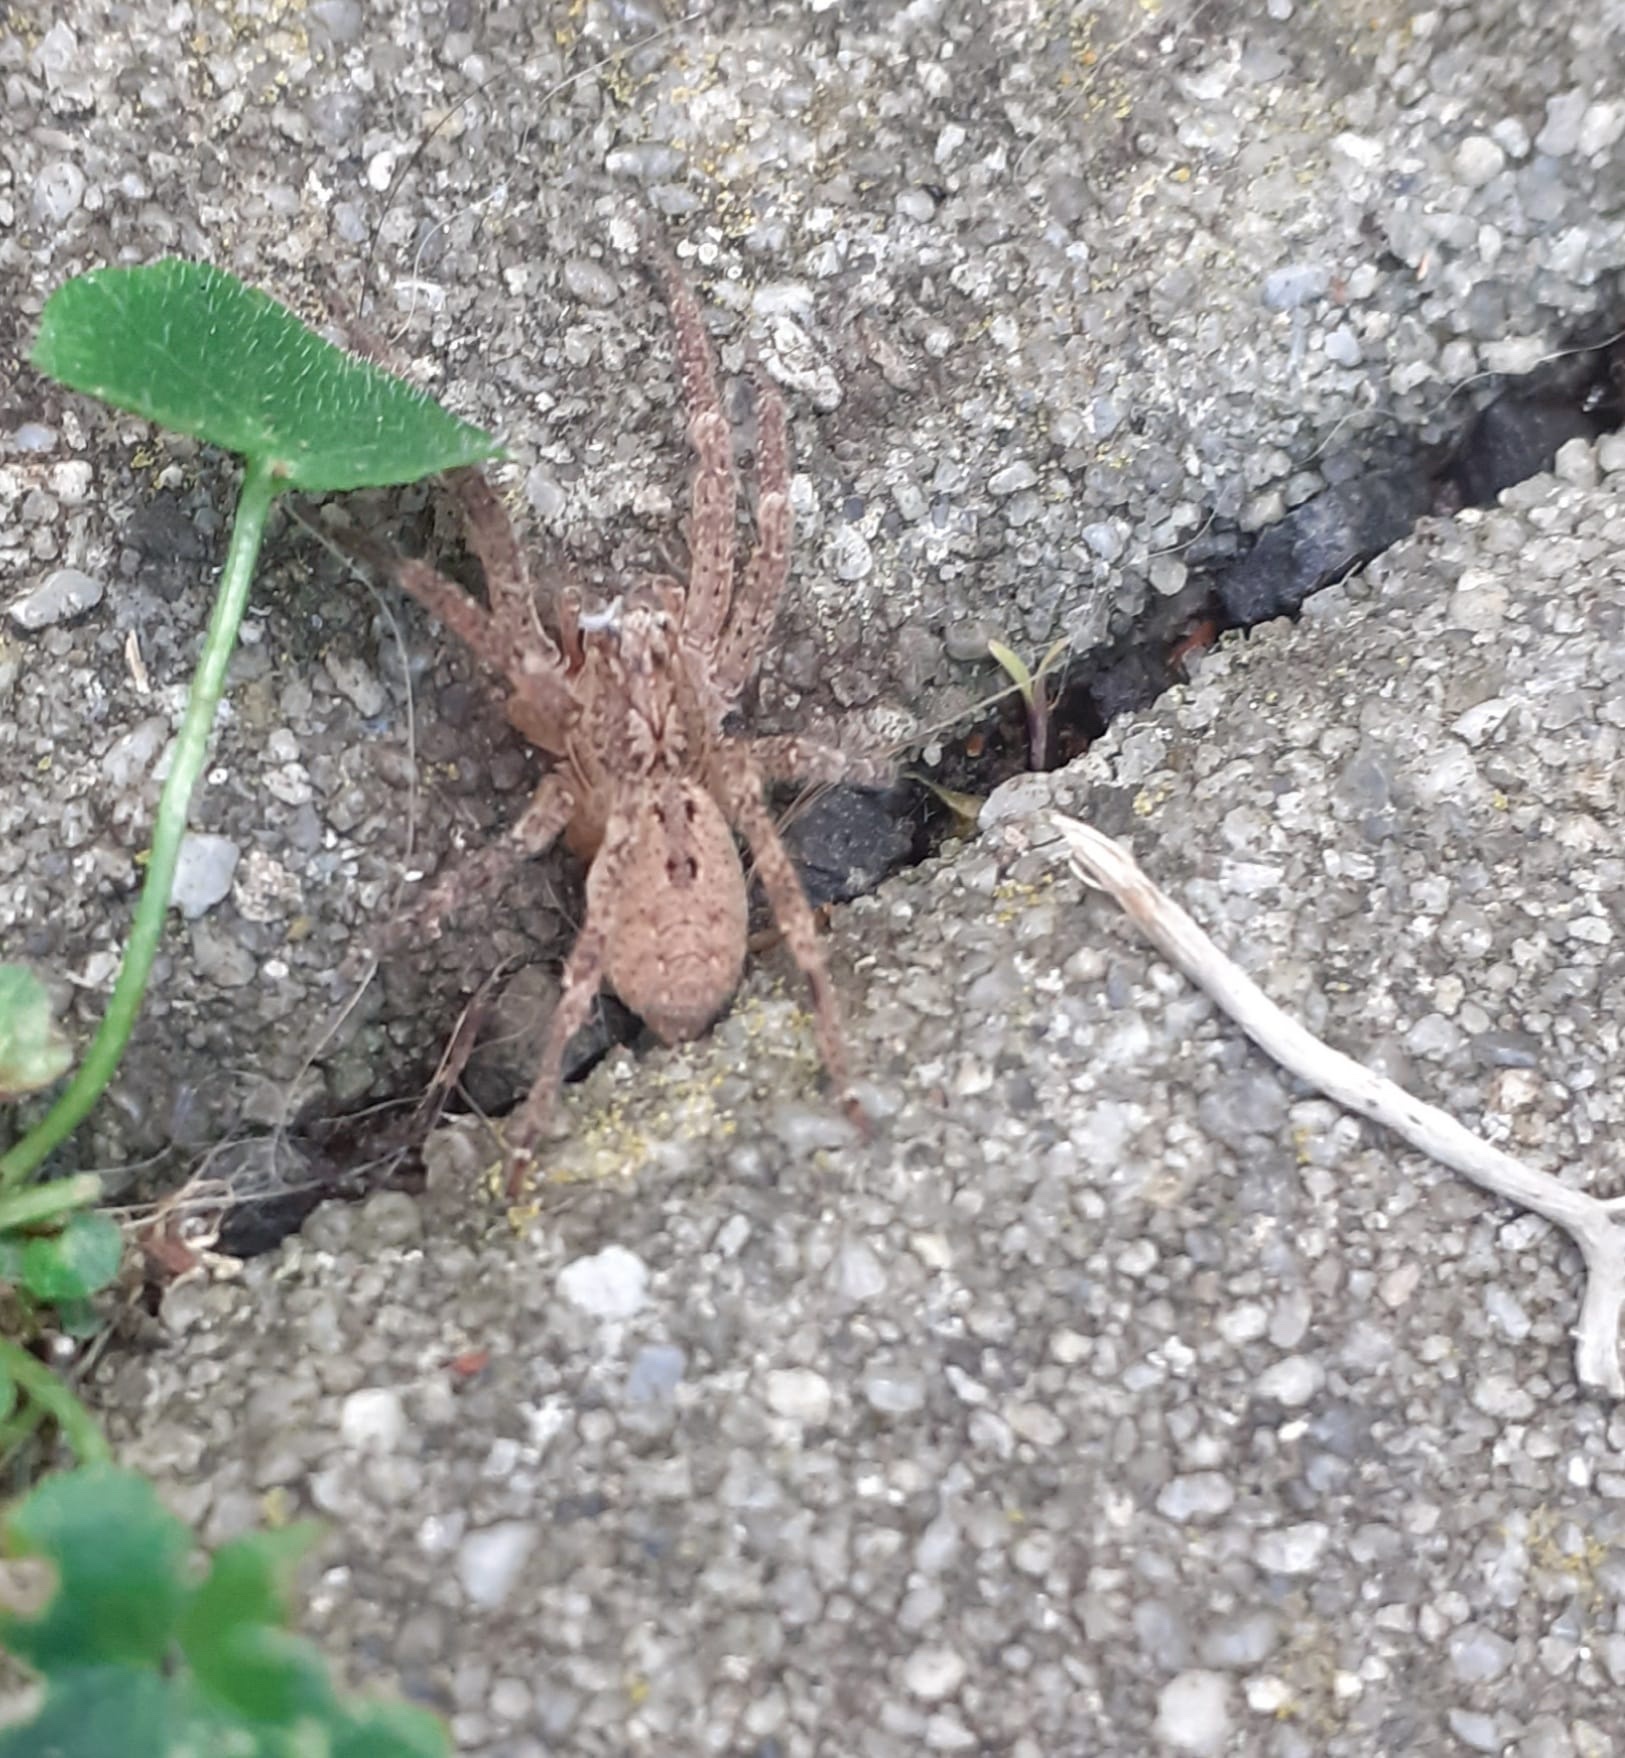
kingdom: Animalia
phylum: Arthropoda
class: Arachnida
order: Araneae
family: Zoropsidae
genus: Zoropsis
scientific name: Zoropsis spinimana
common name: Zoropsid spider
